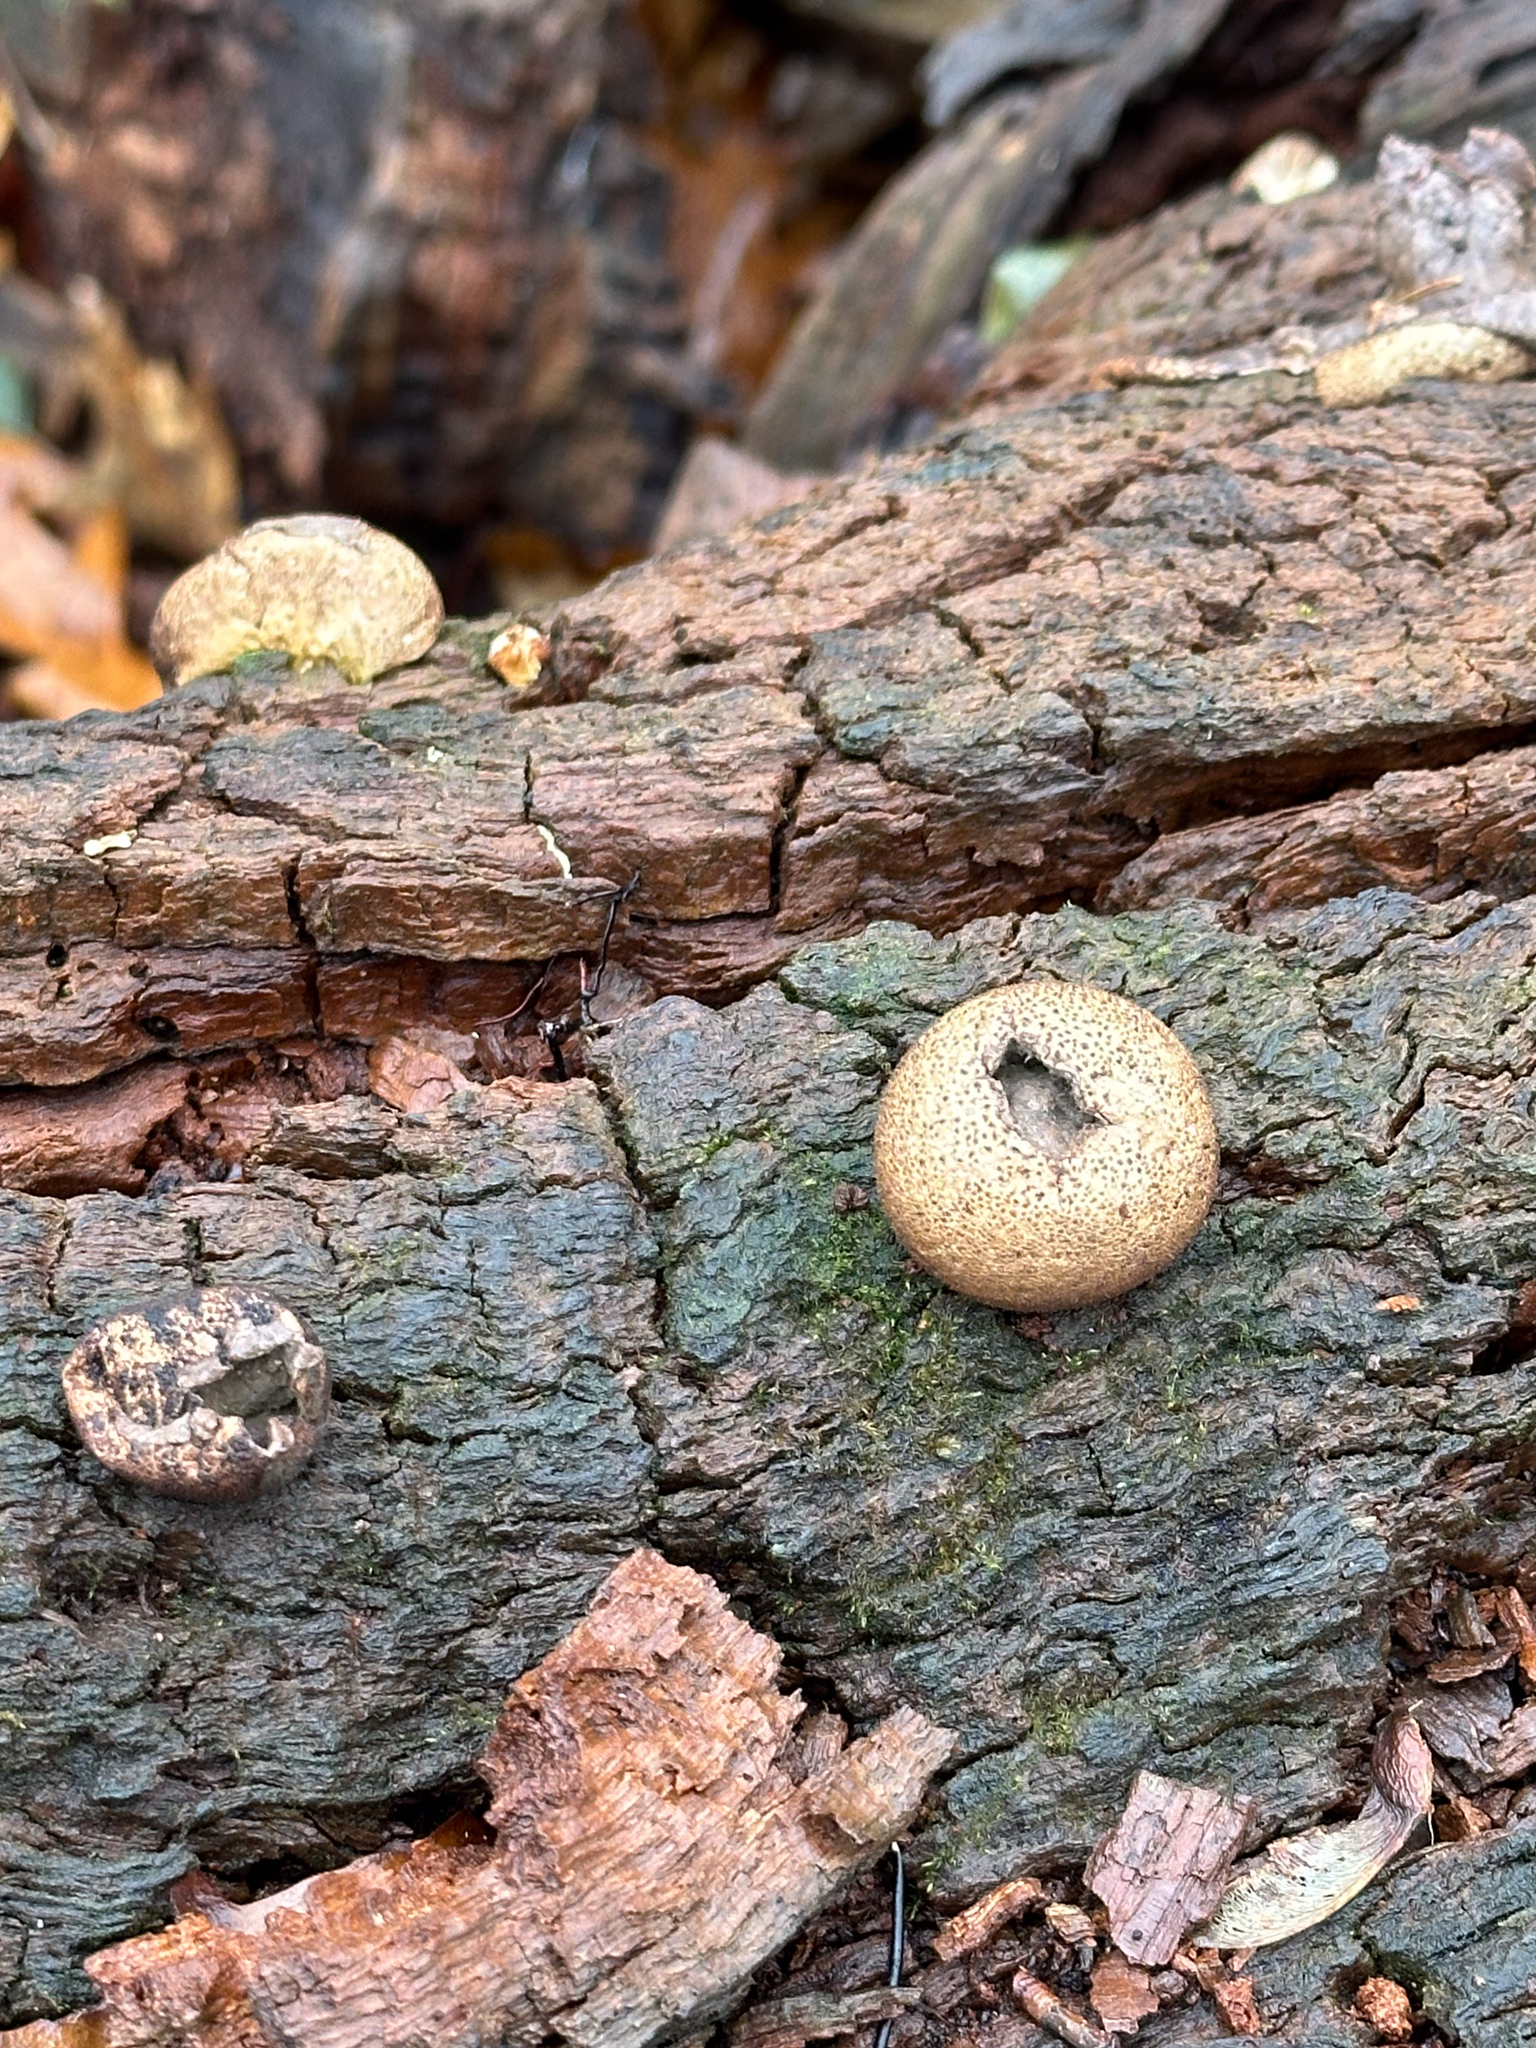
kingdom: Fungi
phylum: Basidiomycota
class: Agaricomycetes
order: Agaricales
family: Lycoperdaceae
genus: Apioperdon
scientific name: Apioperdon pyriforme
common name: Pear-shaped puffball
